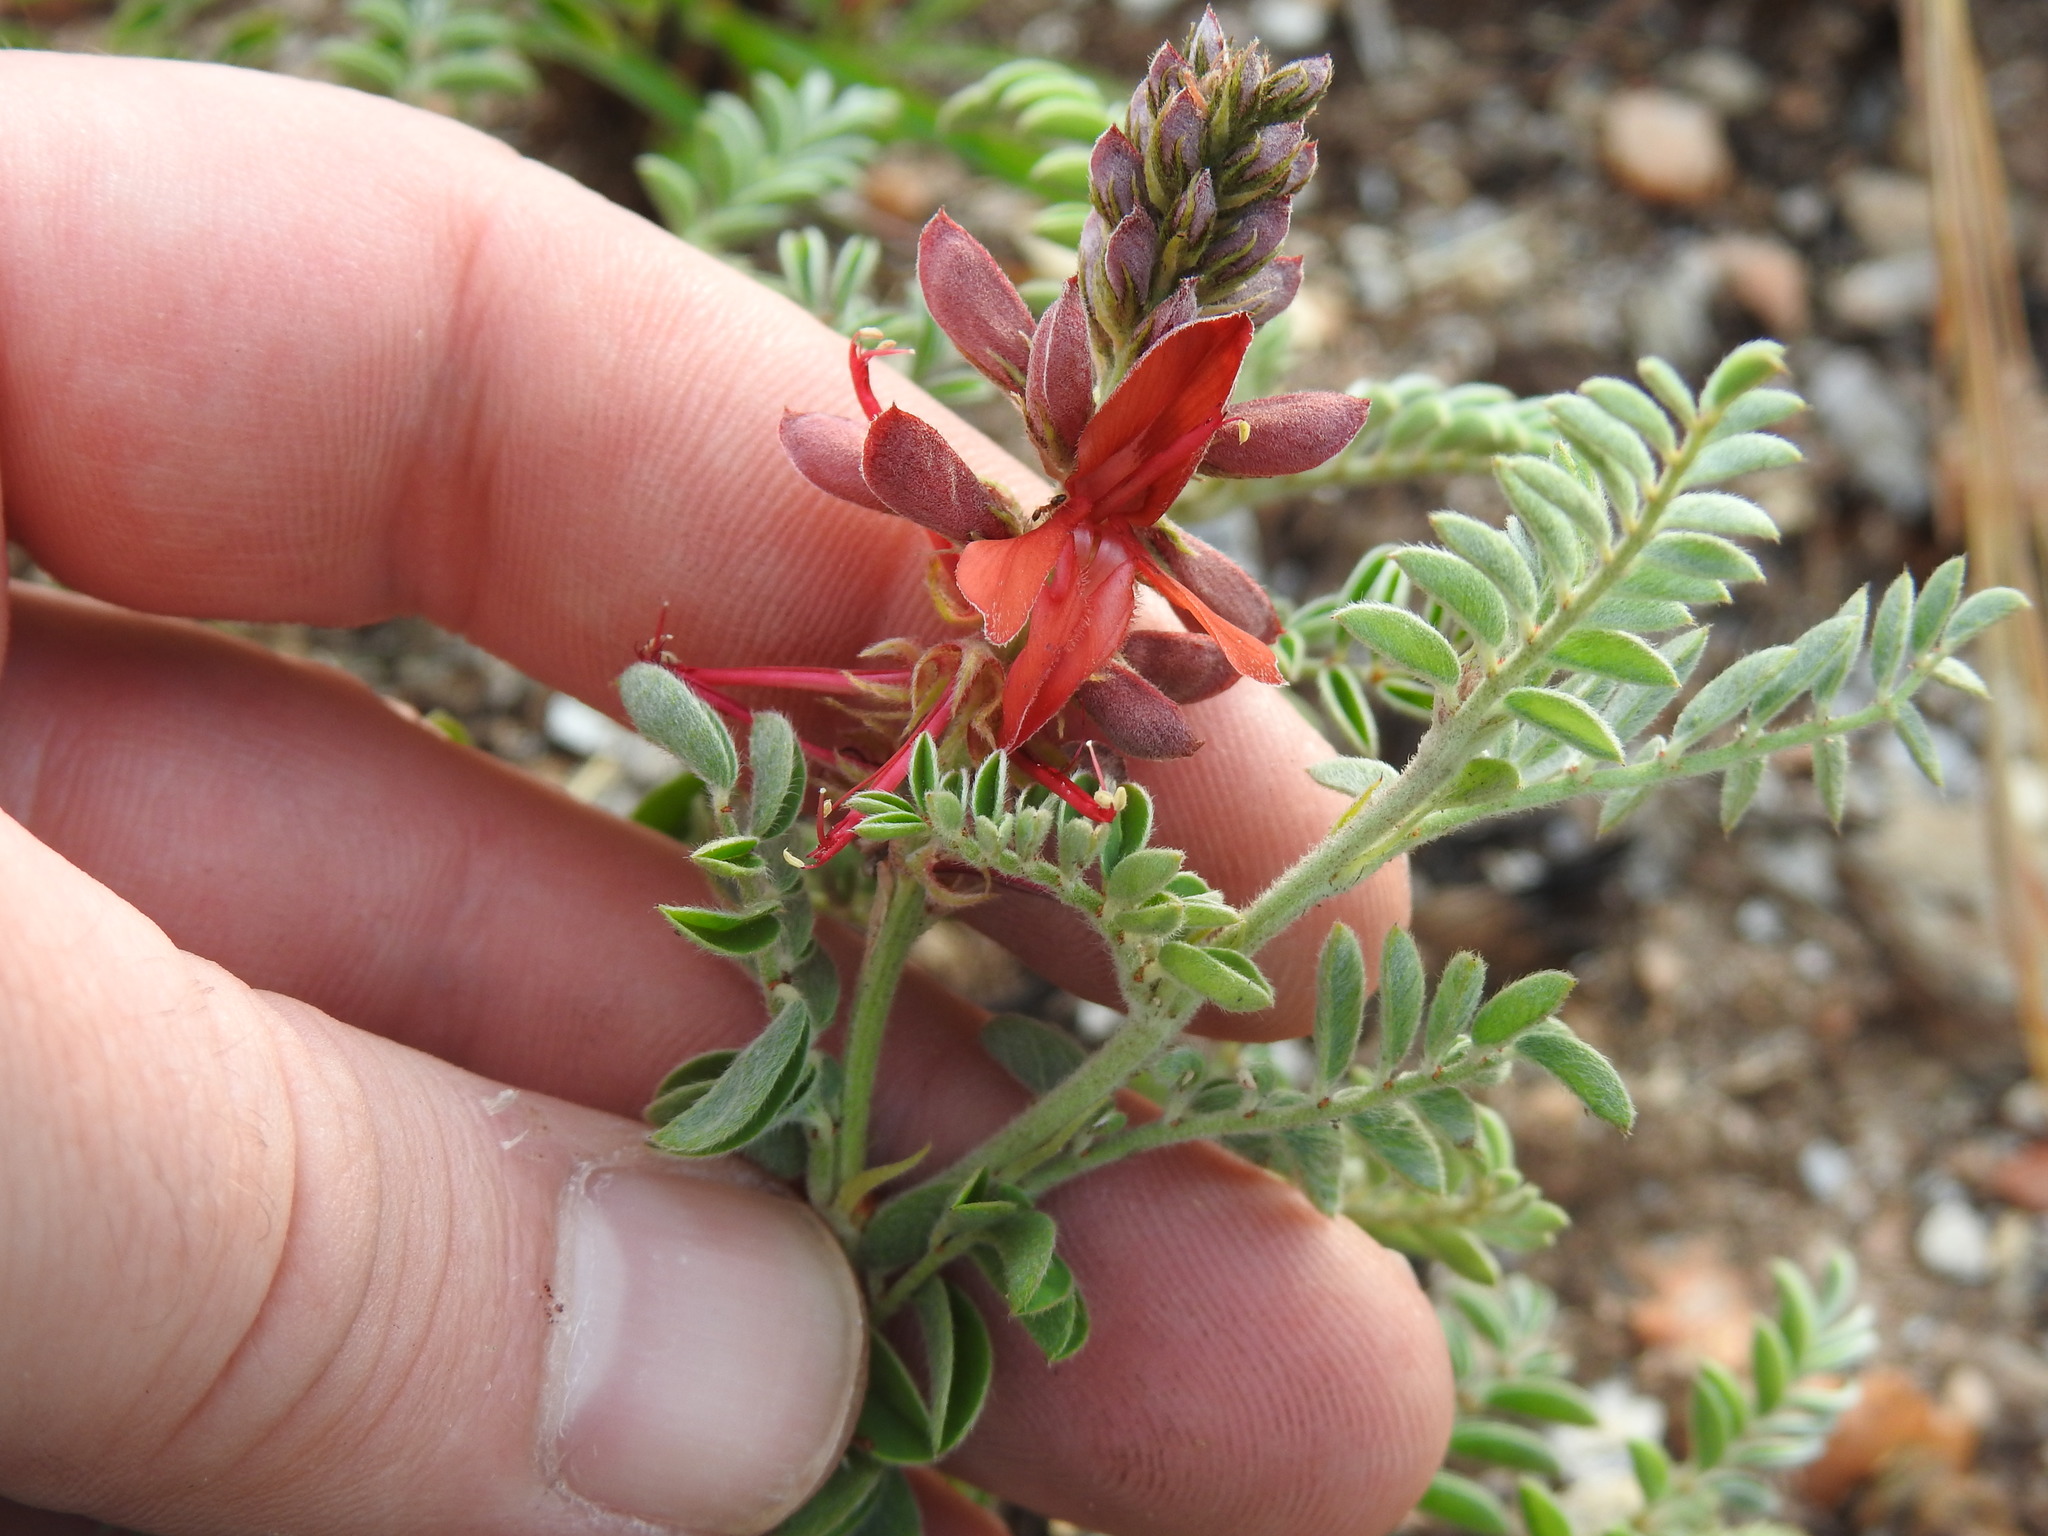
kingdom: Plantae
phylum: Tracheophyta
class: Magnoliopsida
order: Fabales
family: Fabaceae
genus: Indigofera
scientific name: Indigofera oxytropis
